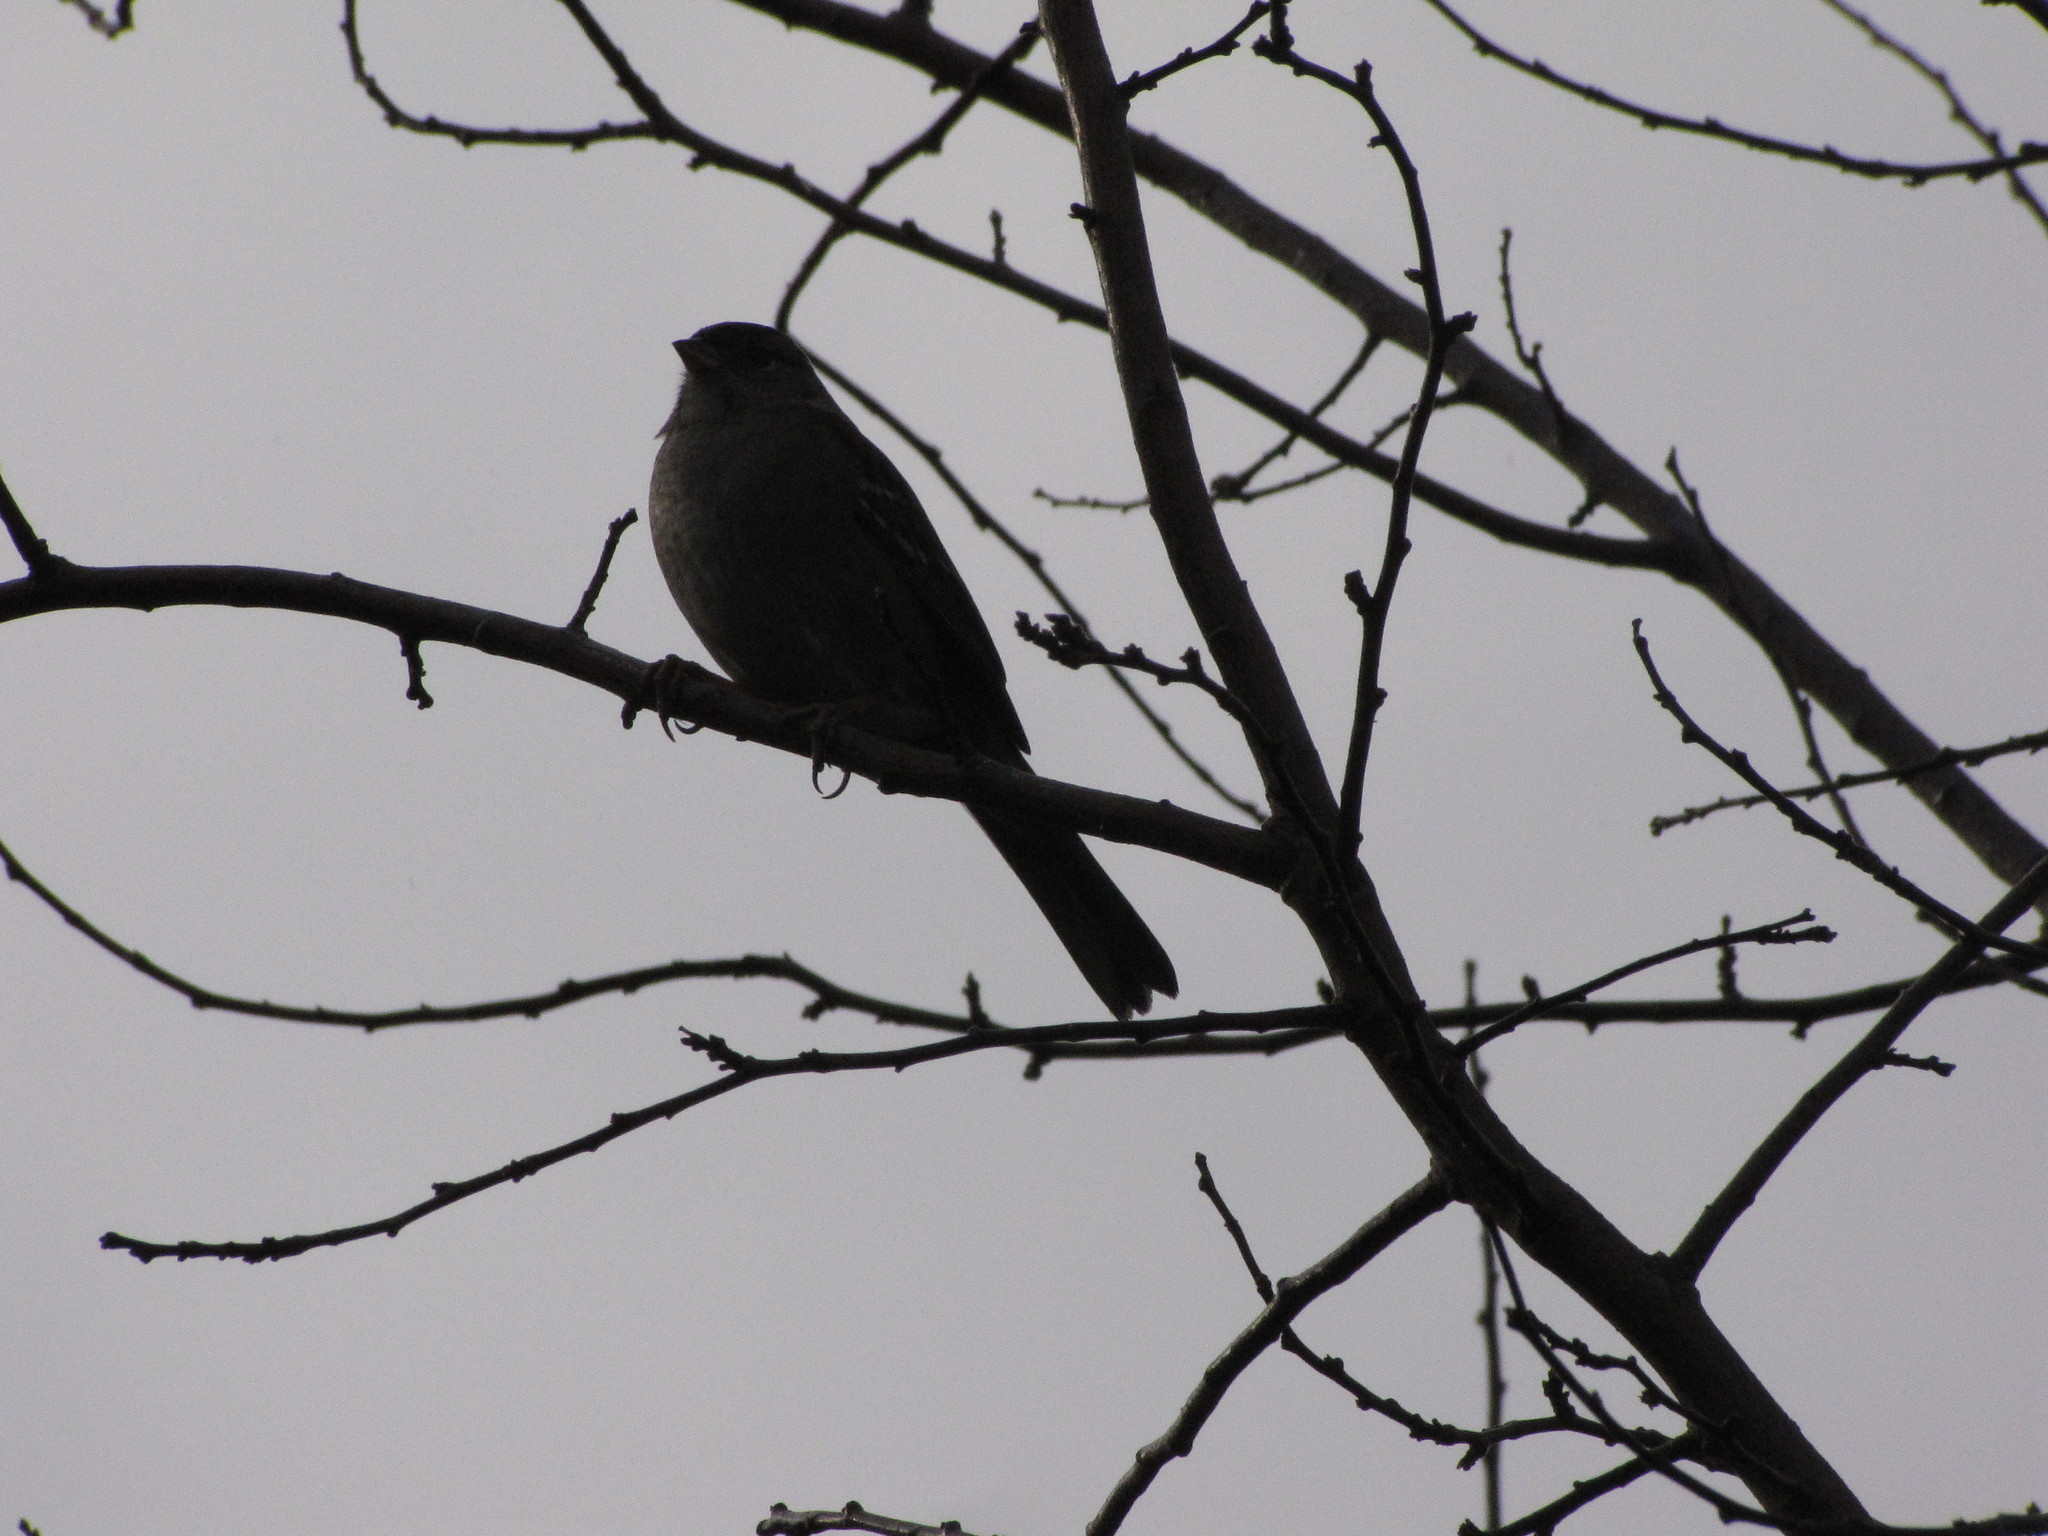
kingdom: Animalia
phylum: Chordata
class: Aves
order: Passeriformes
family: Passerellidae
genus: Zonotrichia
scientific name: Zonotrichia atricapilla
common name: Golden-crowned sparrow
